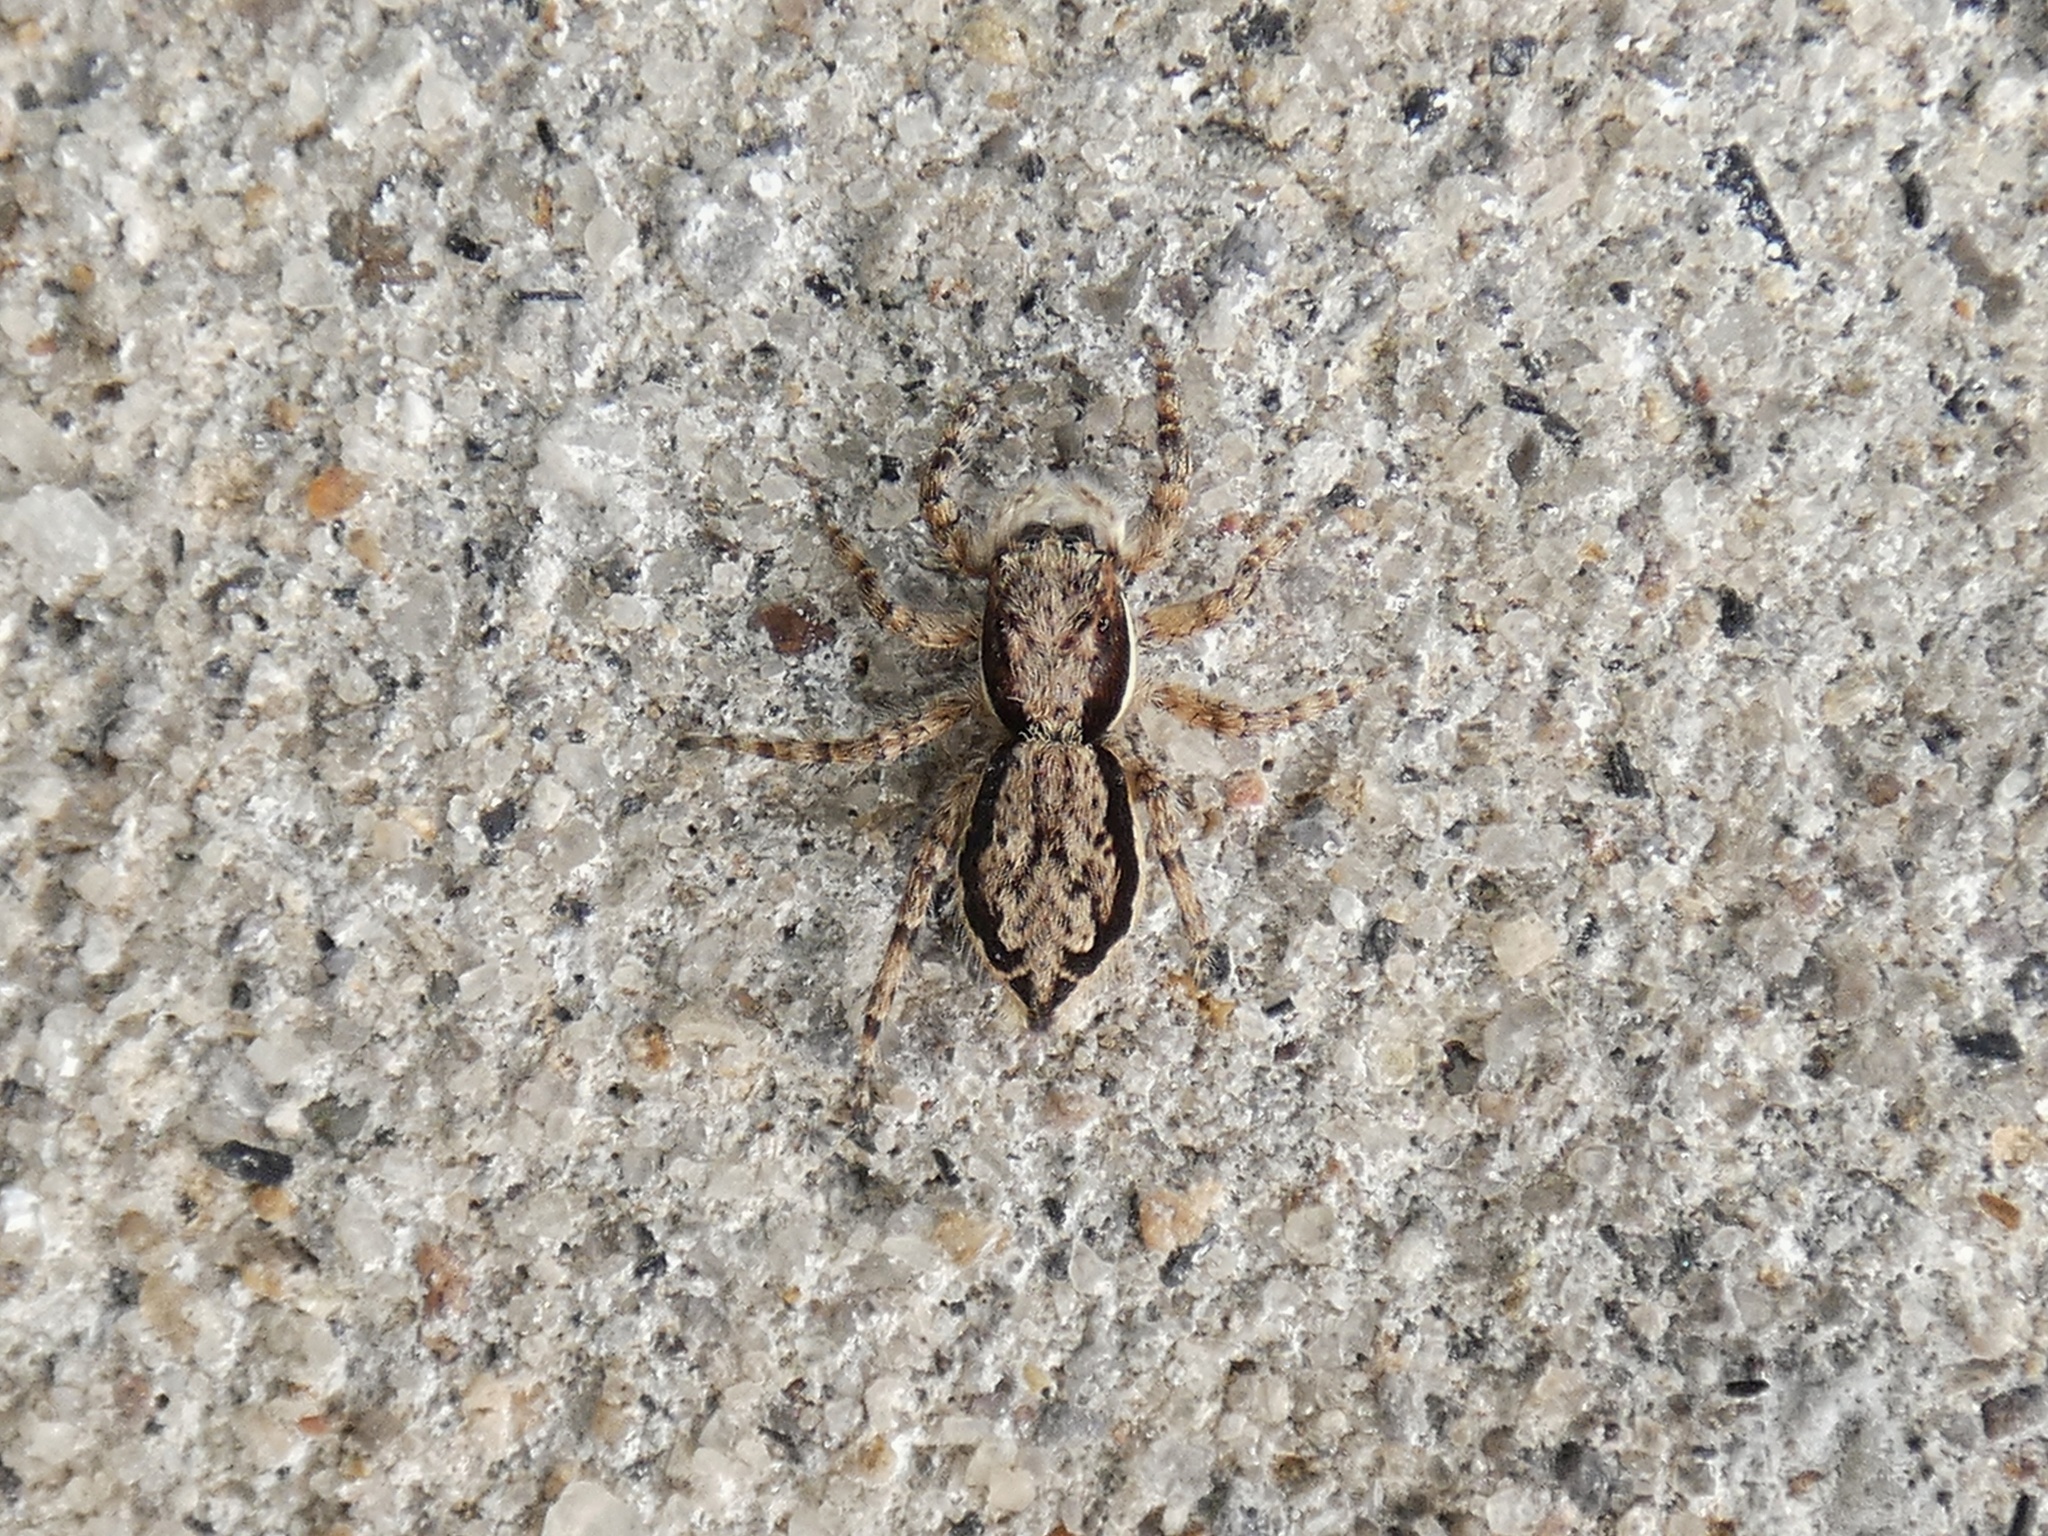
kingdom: Animalia
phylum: Arthropoda
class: Arachnida
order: Araneae
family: Salticidae
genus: Menemerus
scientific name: Menemerus bivittatus
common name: Gray wall jumper
